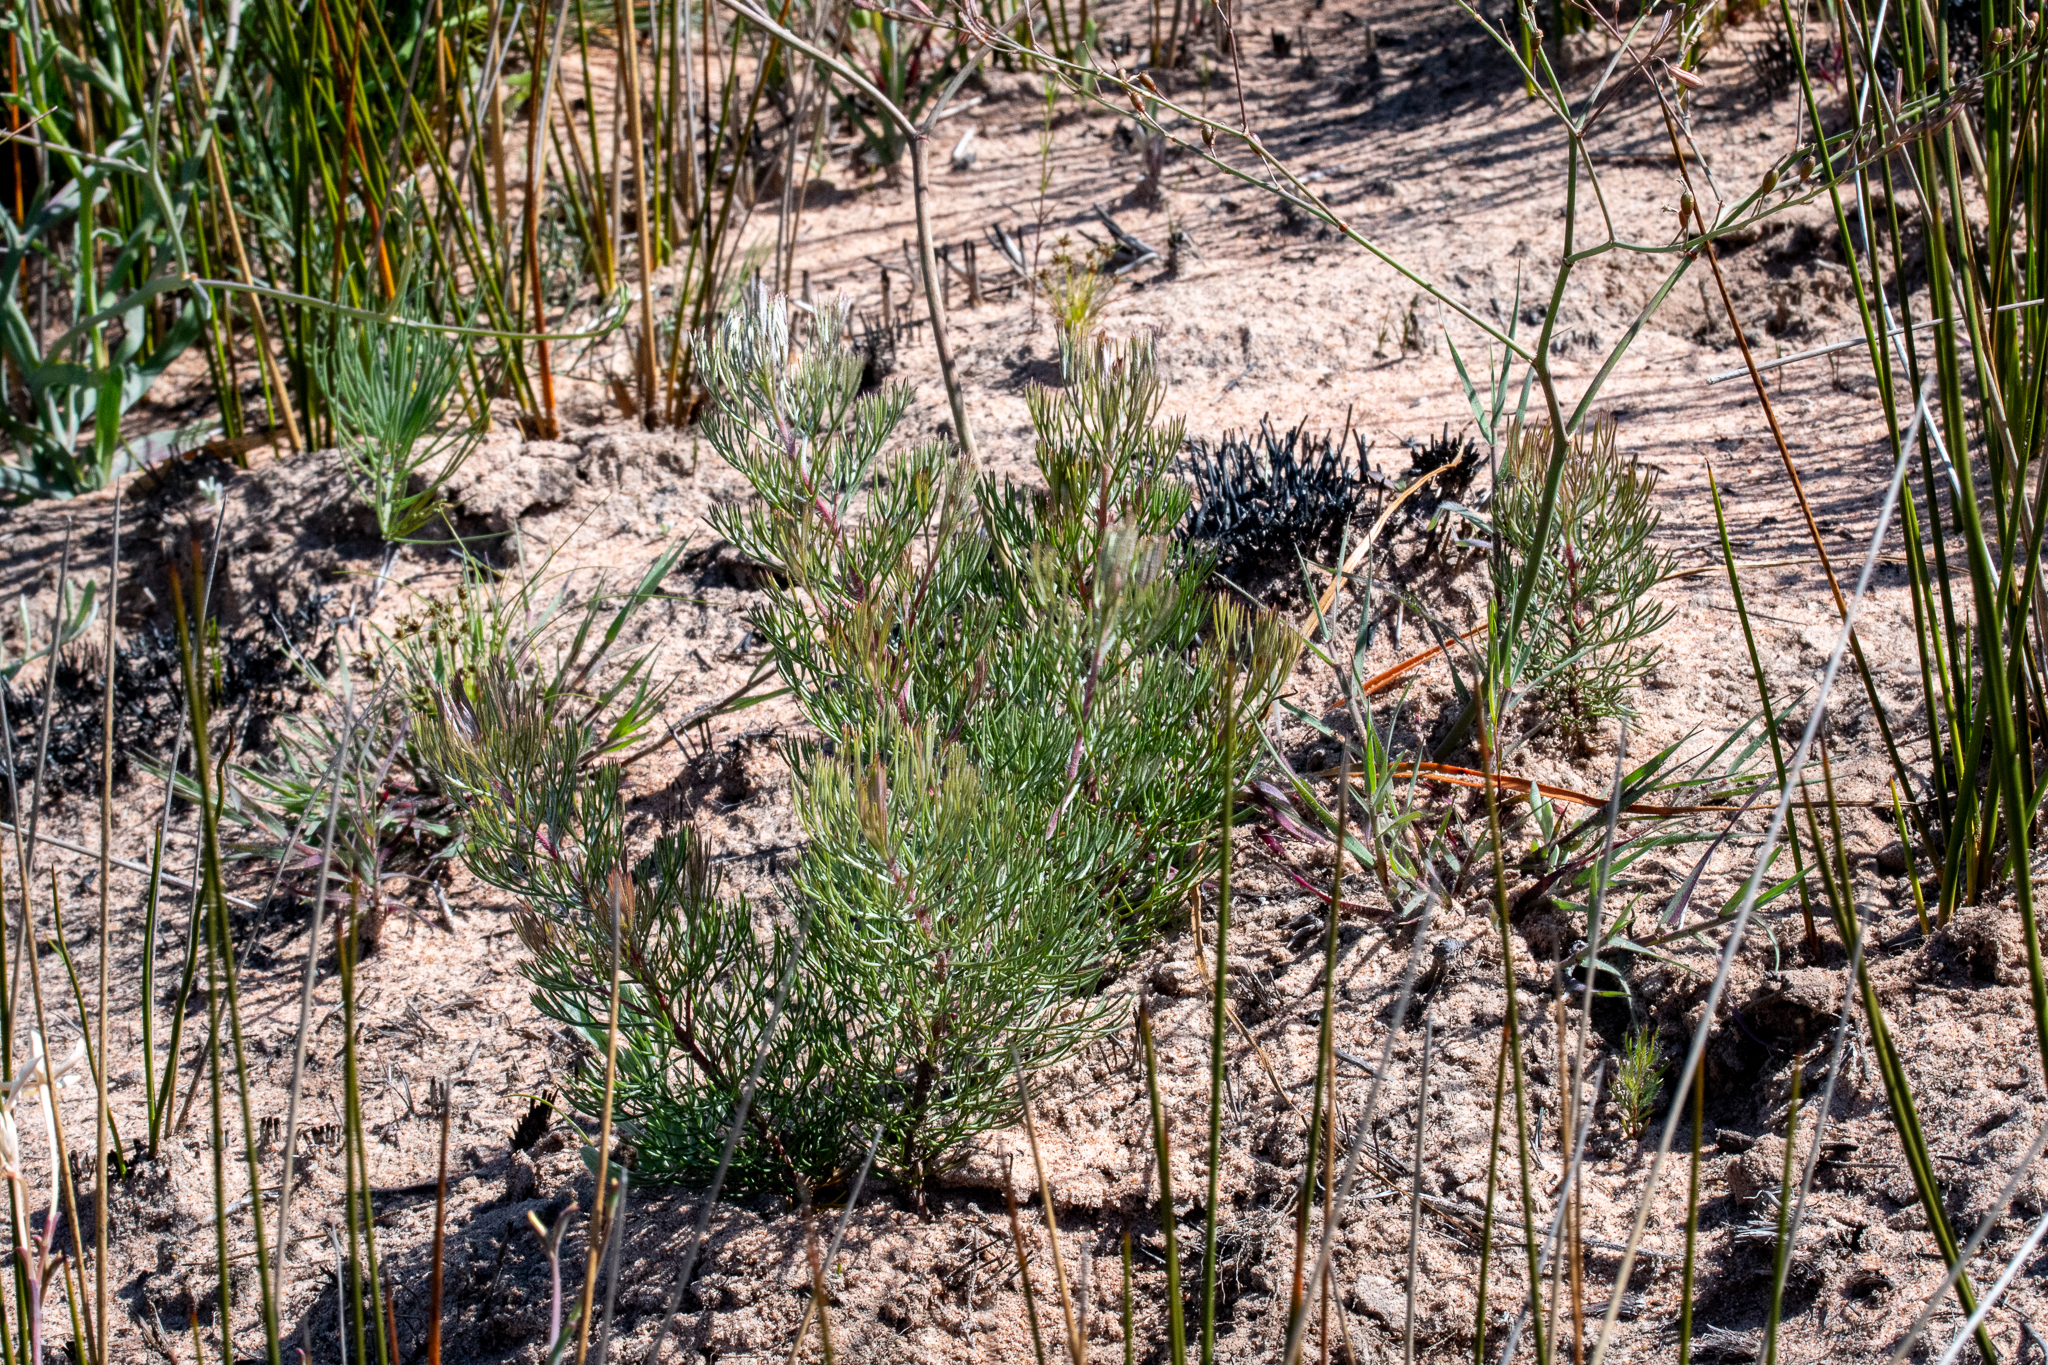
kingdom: Plantae
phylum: Tracheophyta
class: Magnoliopsida
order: Proteales
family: Proteaceae
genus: Serruria
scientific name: Serruria fasciflora
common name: Common pin spiderhead
